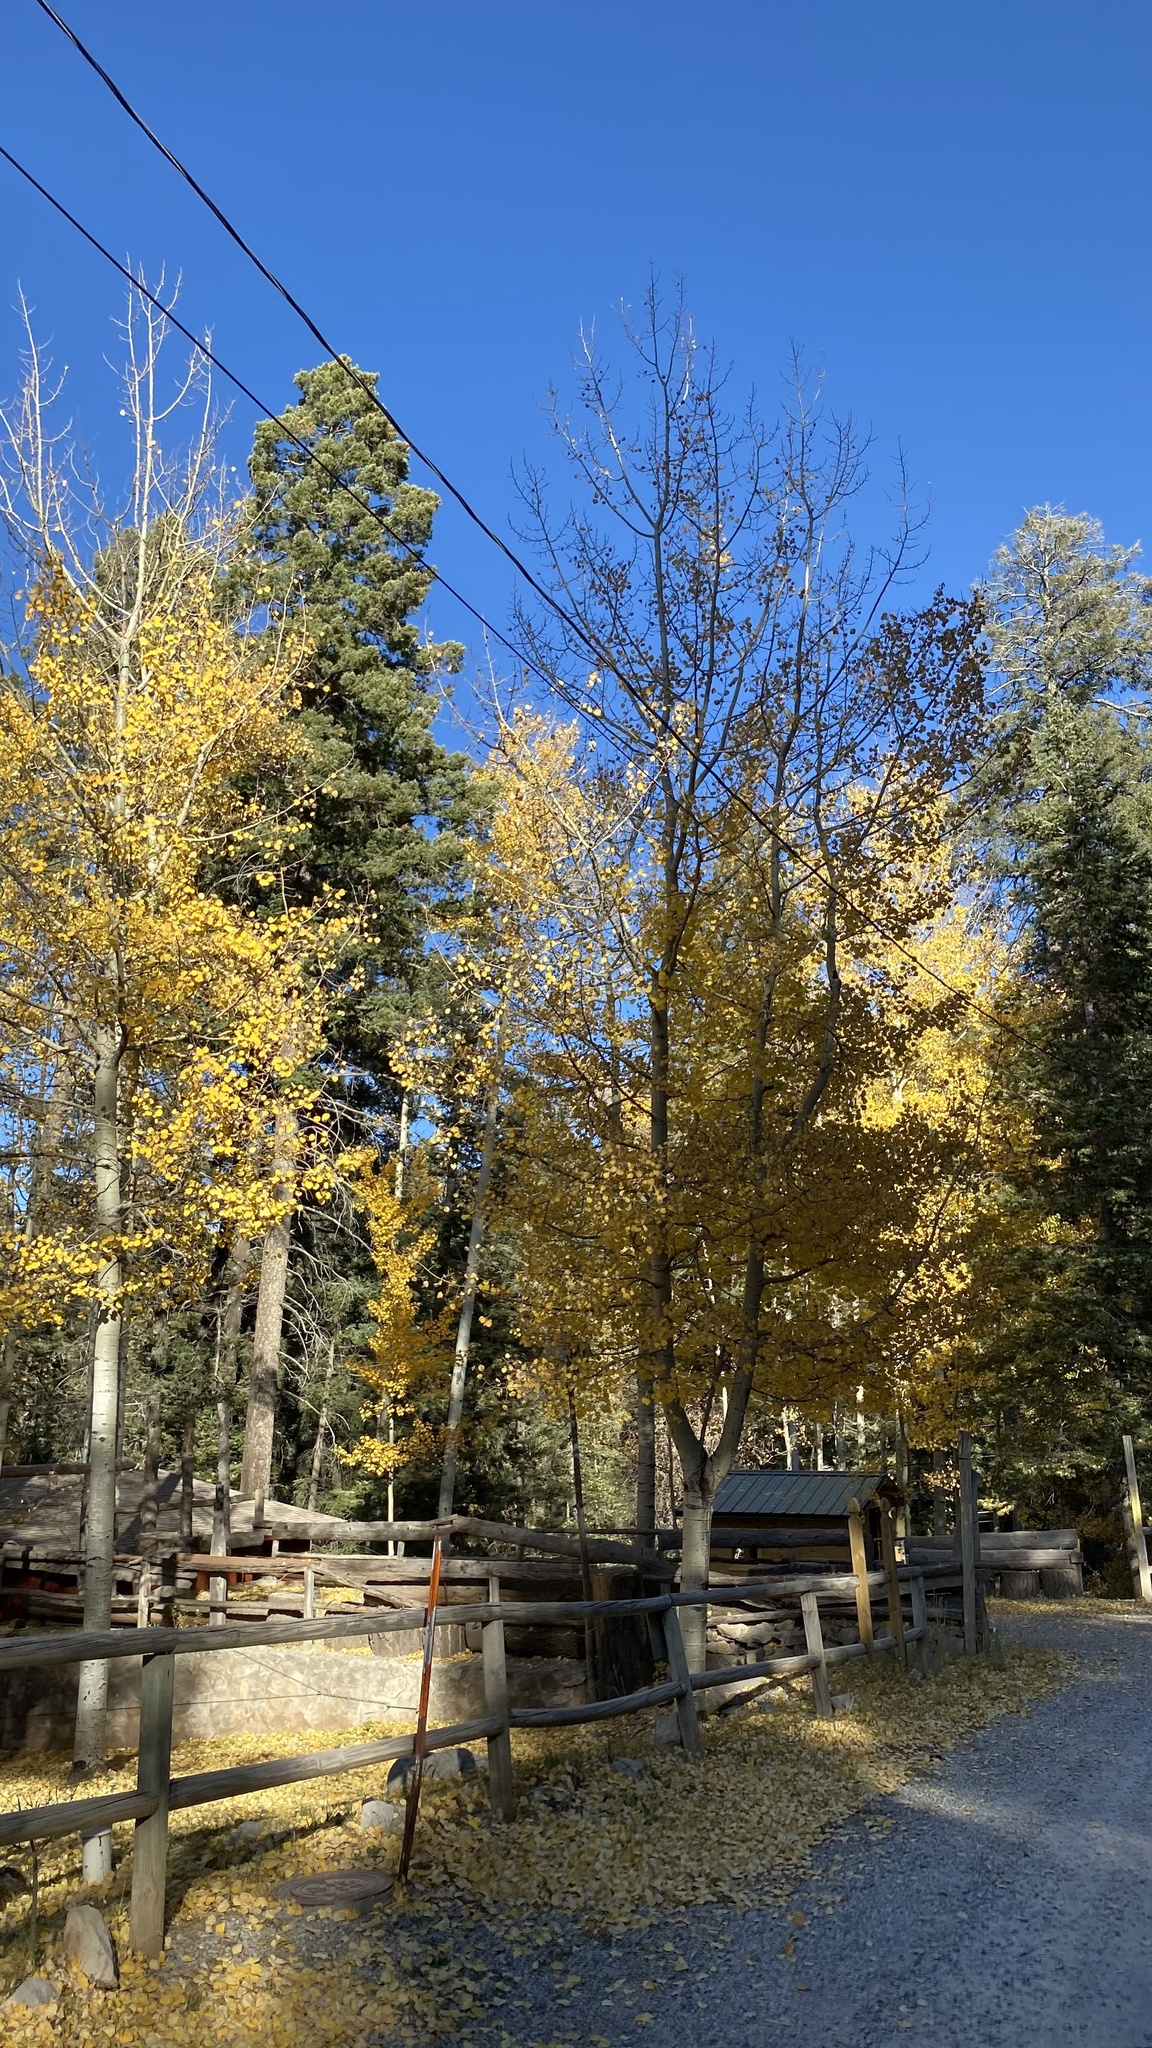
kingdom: Plantae
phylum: Tracheophyta
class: Magnoliopsida
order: Malpighiales
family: Salicaceae
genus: Populus
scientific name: Populus tremuloides
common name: Quaking aspen
